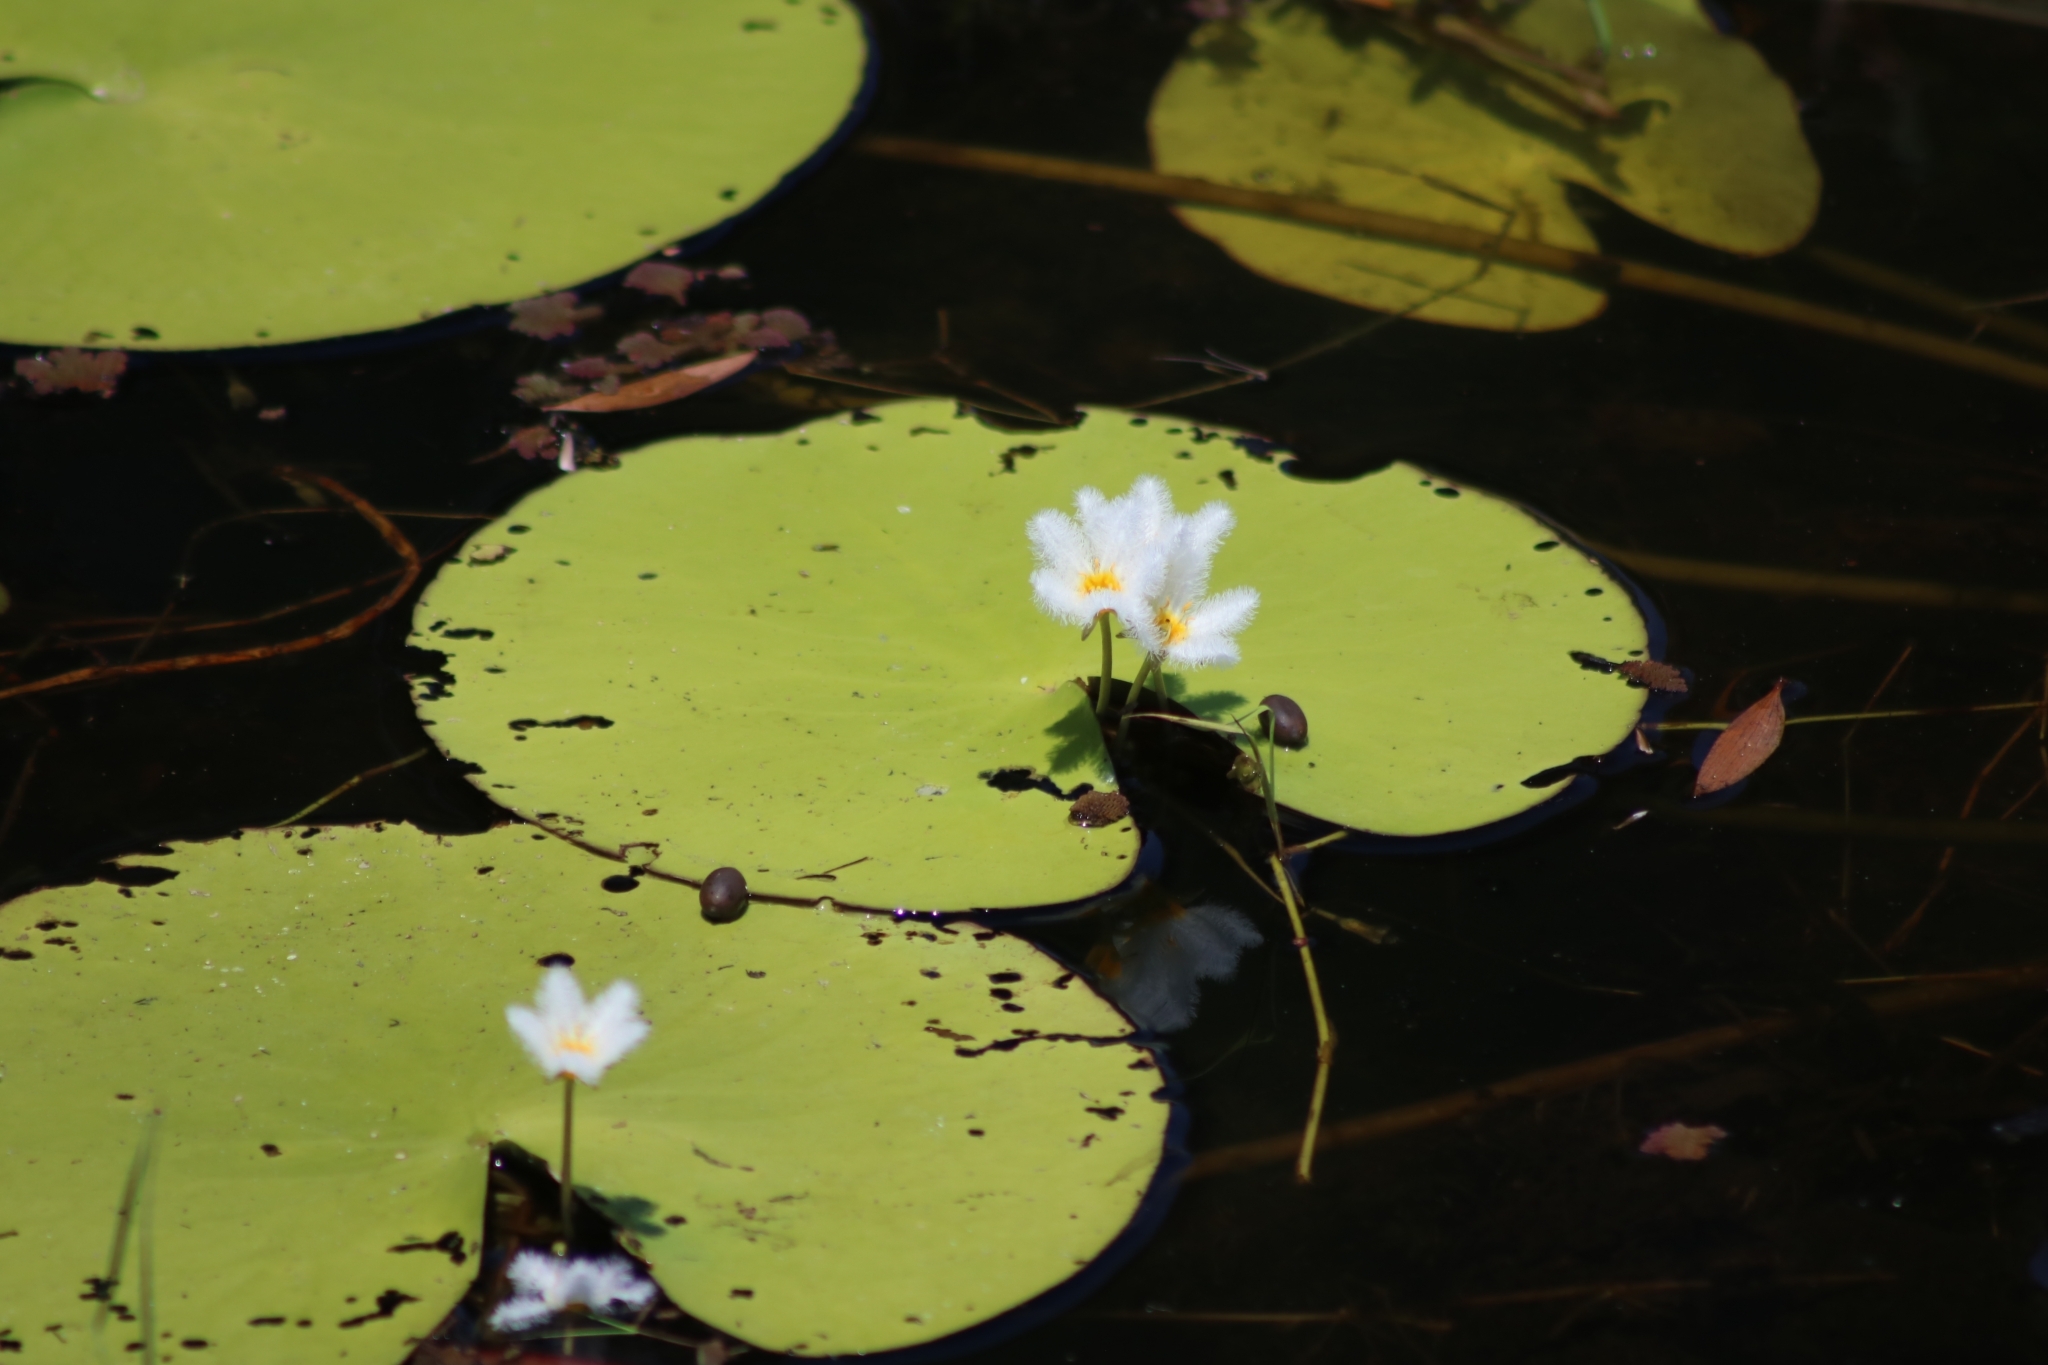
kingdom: Plantae
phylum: Tracheophyta
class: Magnoliopsida
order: Asterales
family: Menyanthaceae
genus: Nymphoides
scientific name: Nymphoides indica
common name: Water-snowflake
